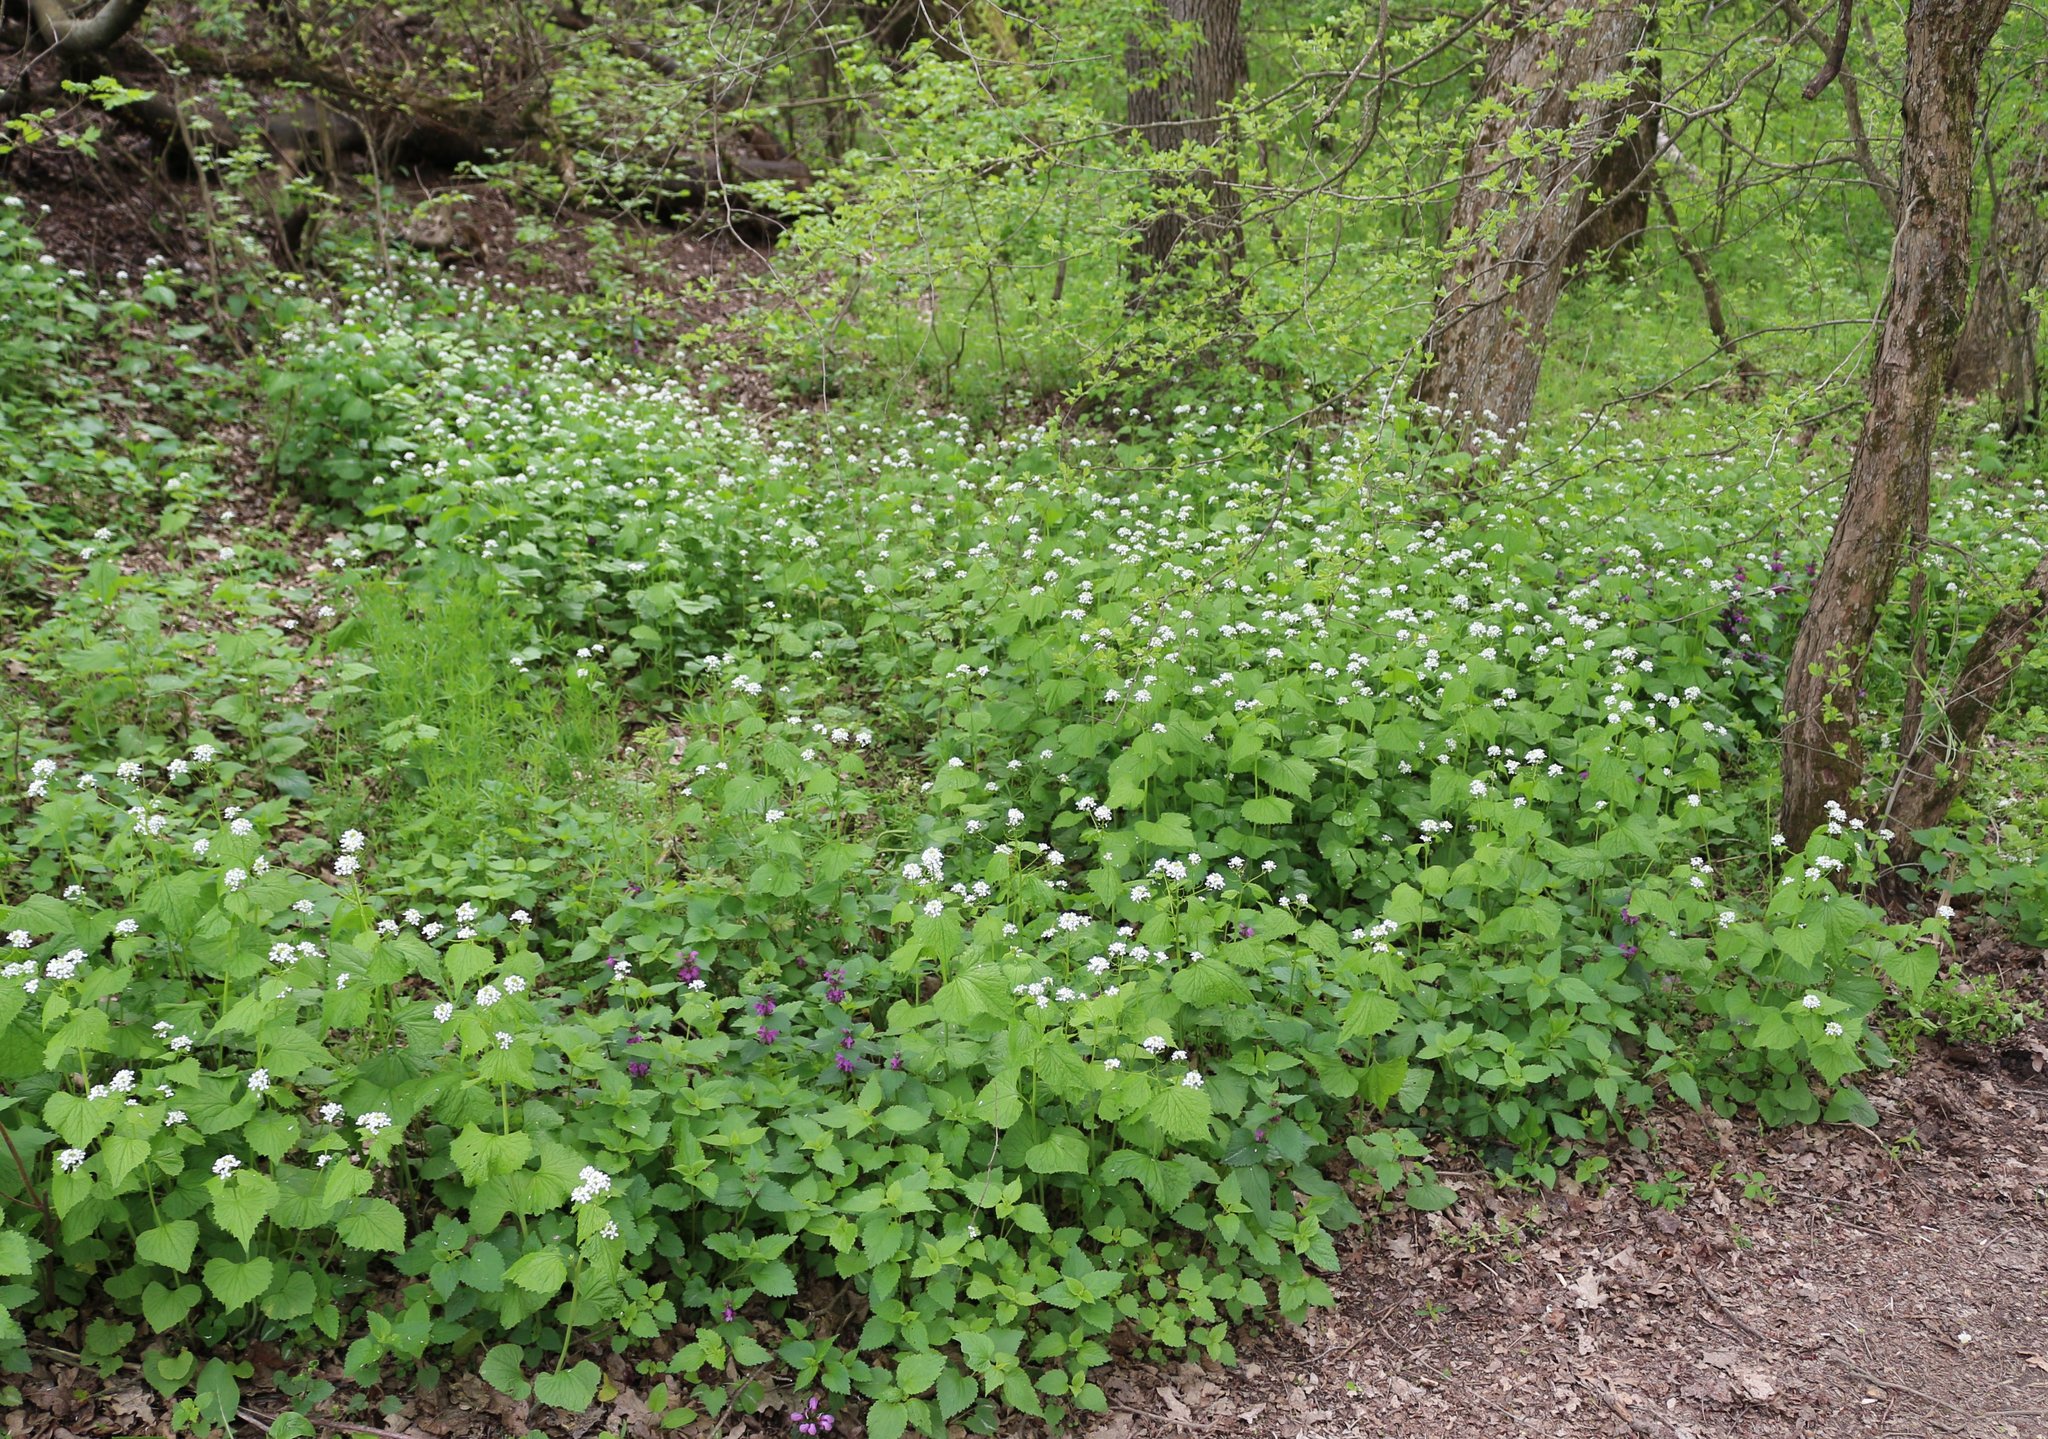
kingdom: Plantae
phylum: Tracheophyta
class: Magnoliopsida
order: Brassicales
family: Brassicaceae
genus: Alliaria
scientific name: Alliaria petiolata
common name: Garlic mustard
